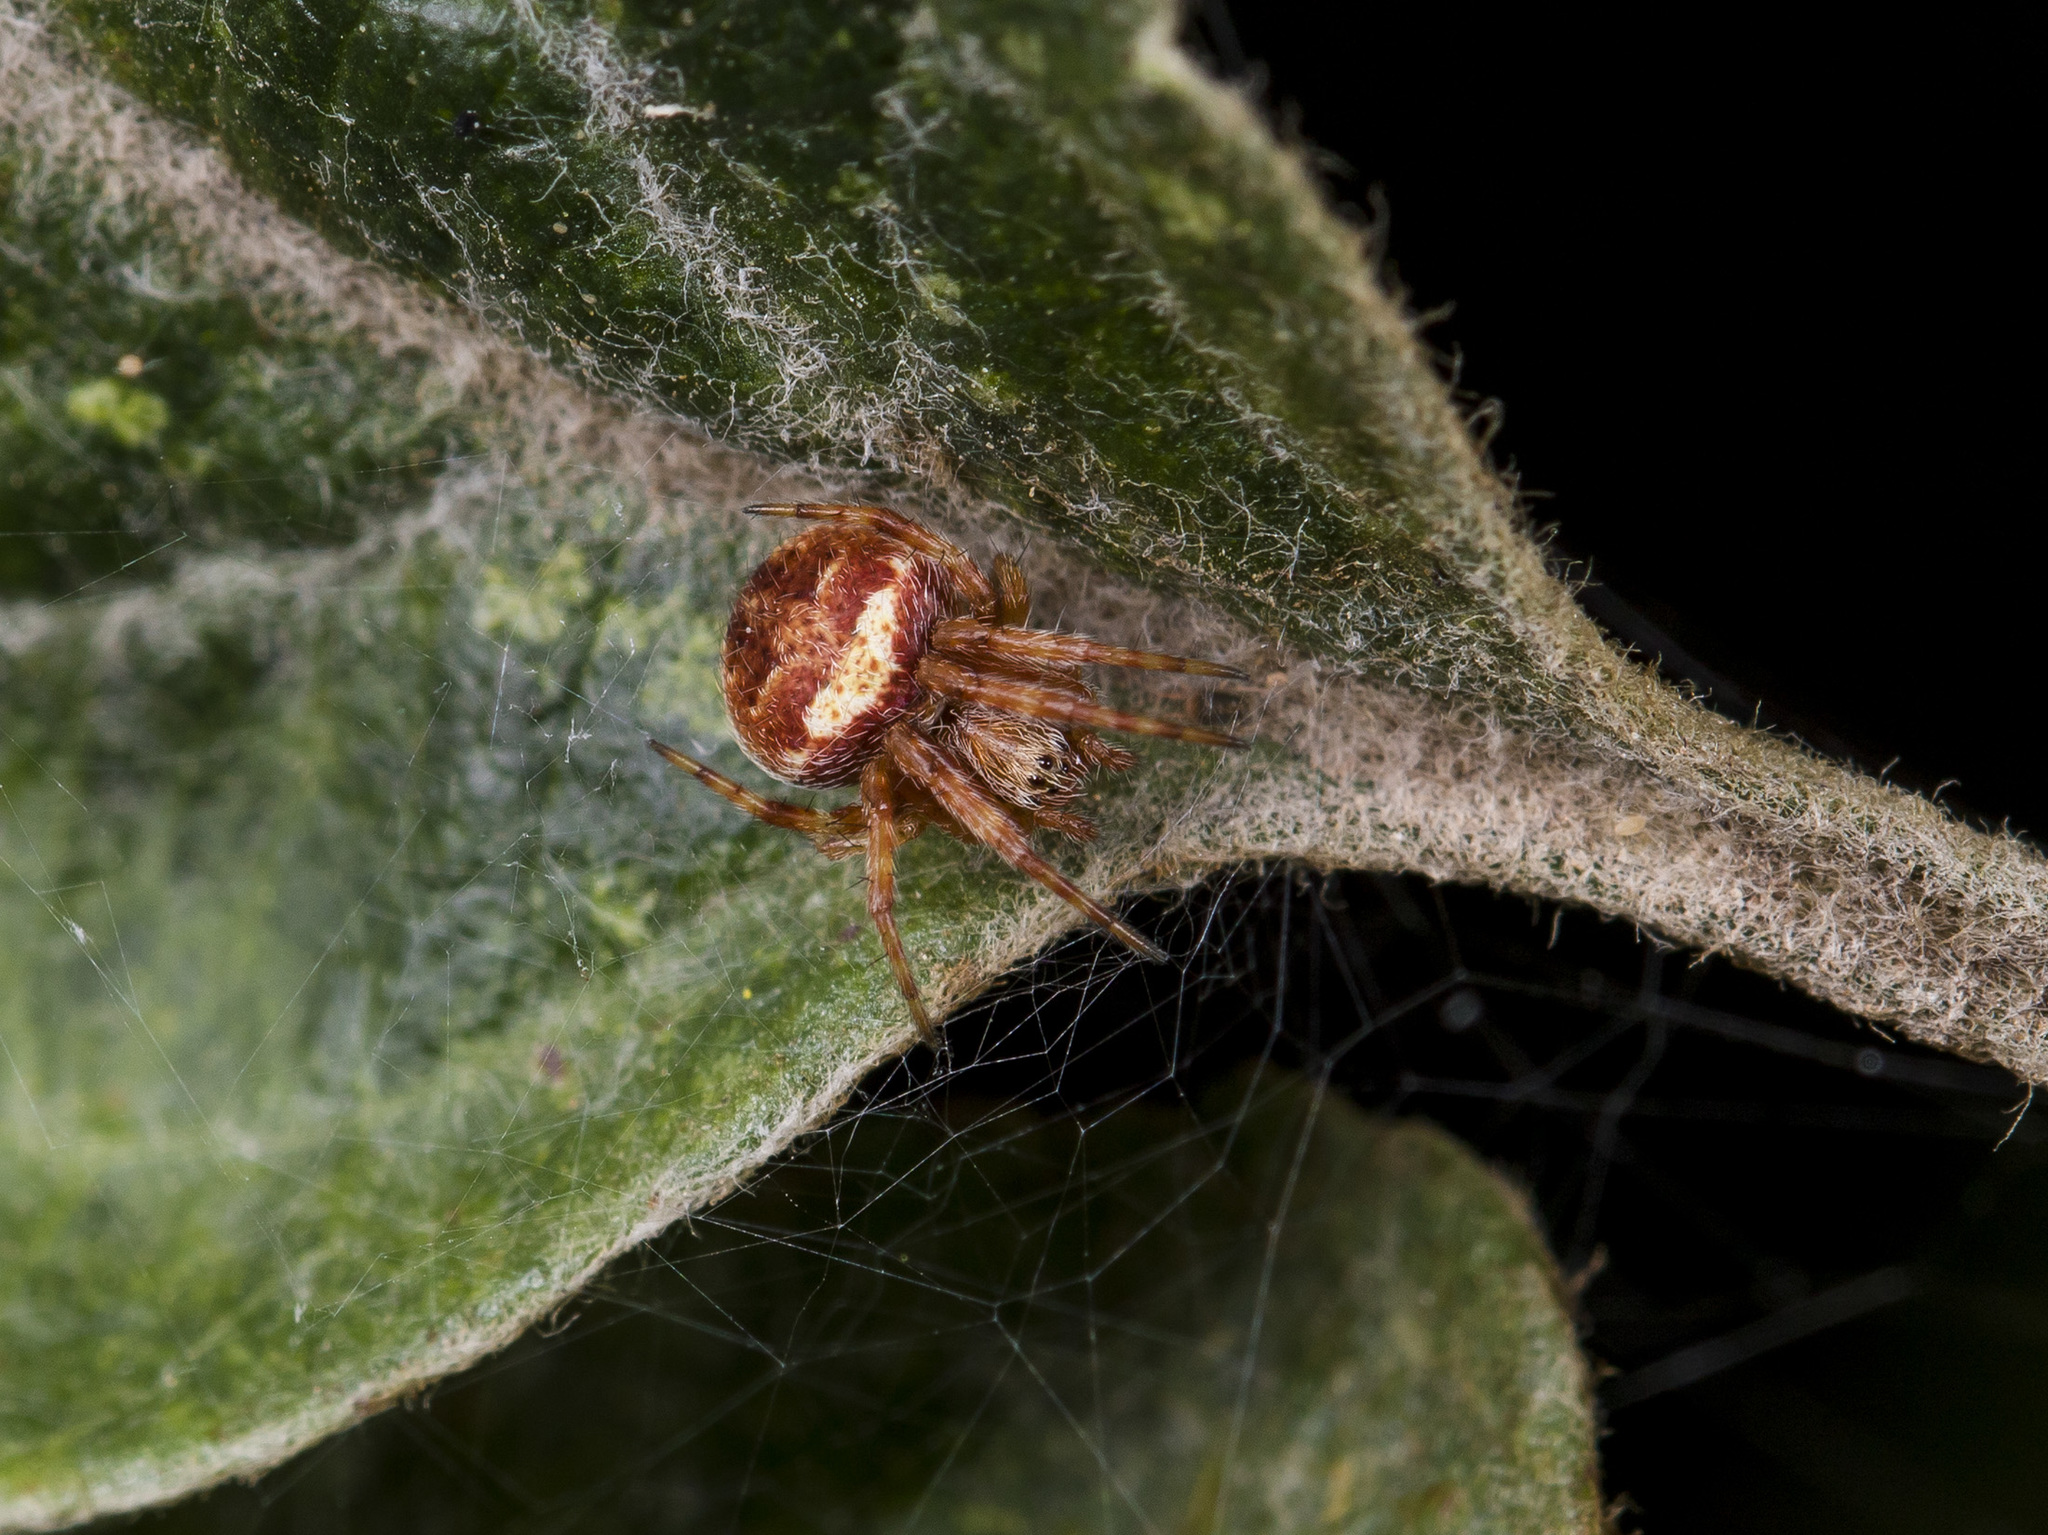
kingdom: Animalia
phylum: Arthropoda
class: Arachnida
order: Araneae
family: Araneidae
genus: Agalenatea
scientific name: Agalenatea redii
